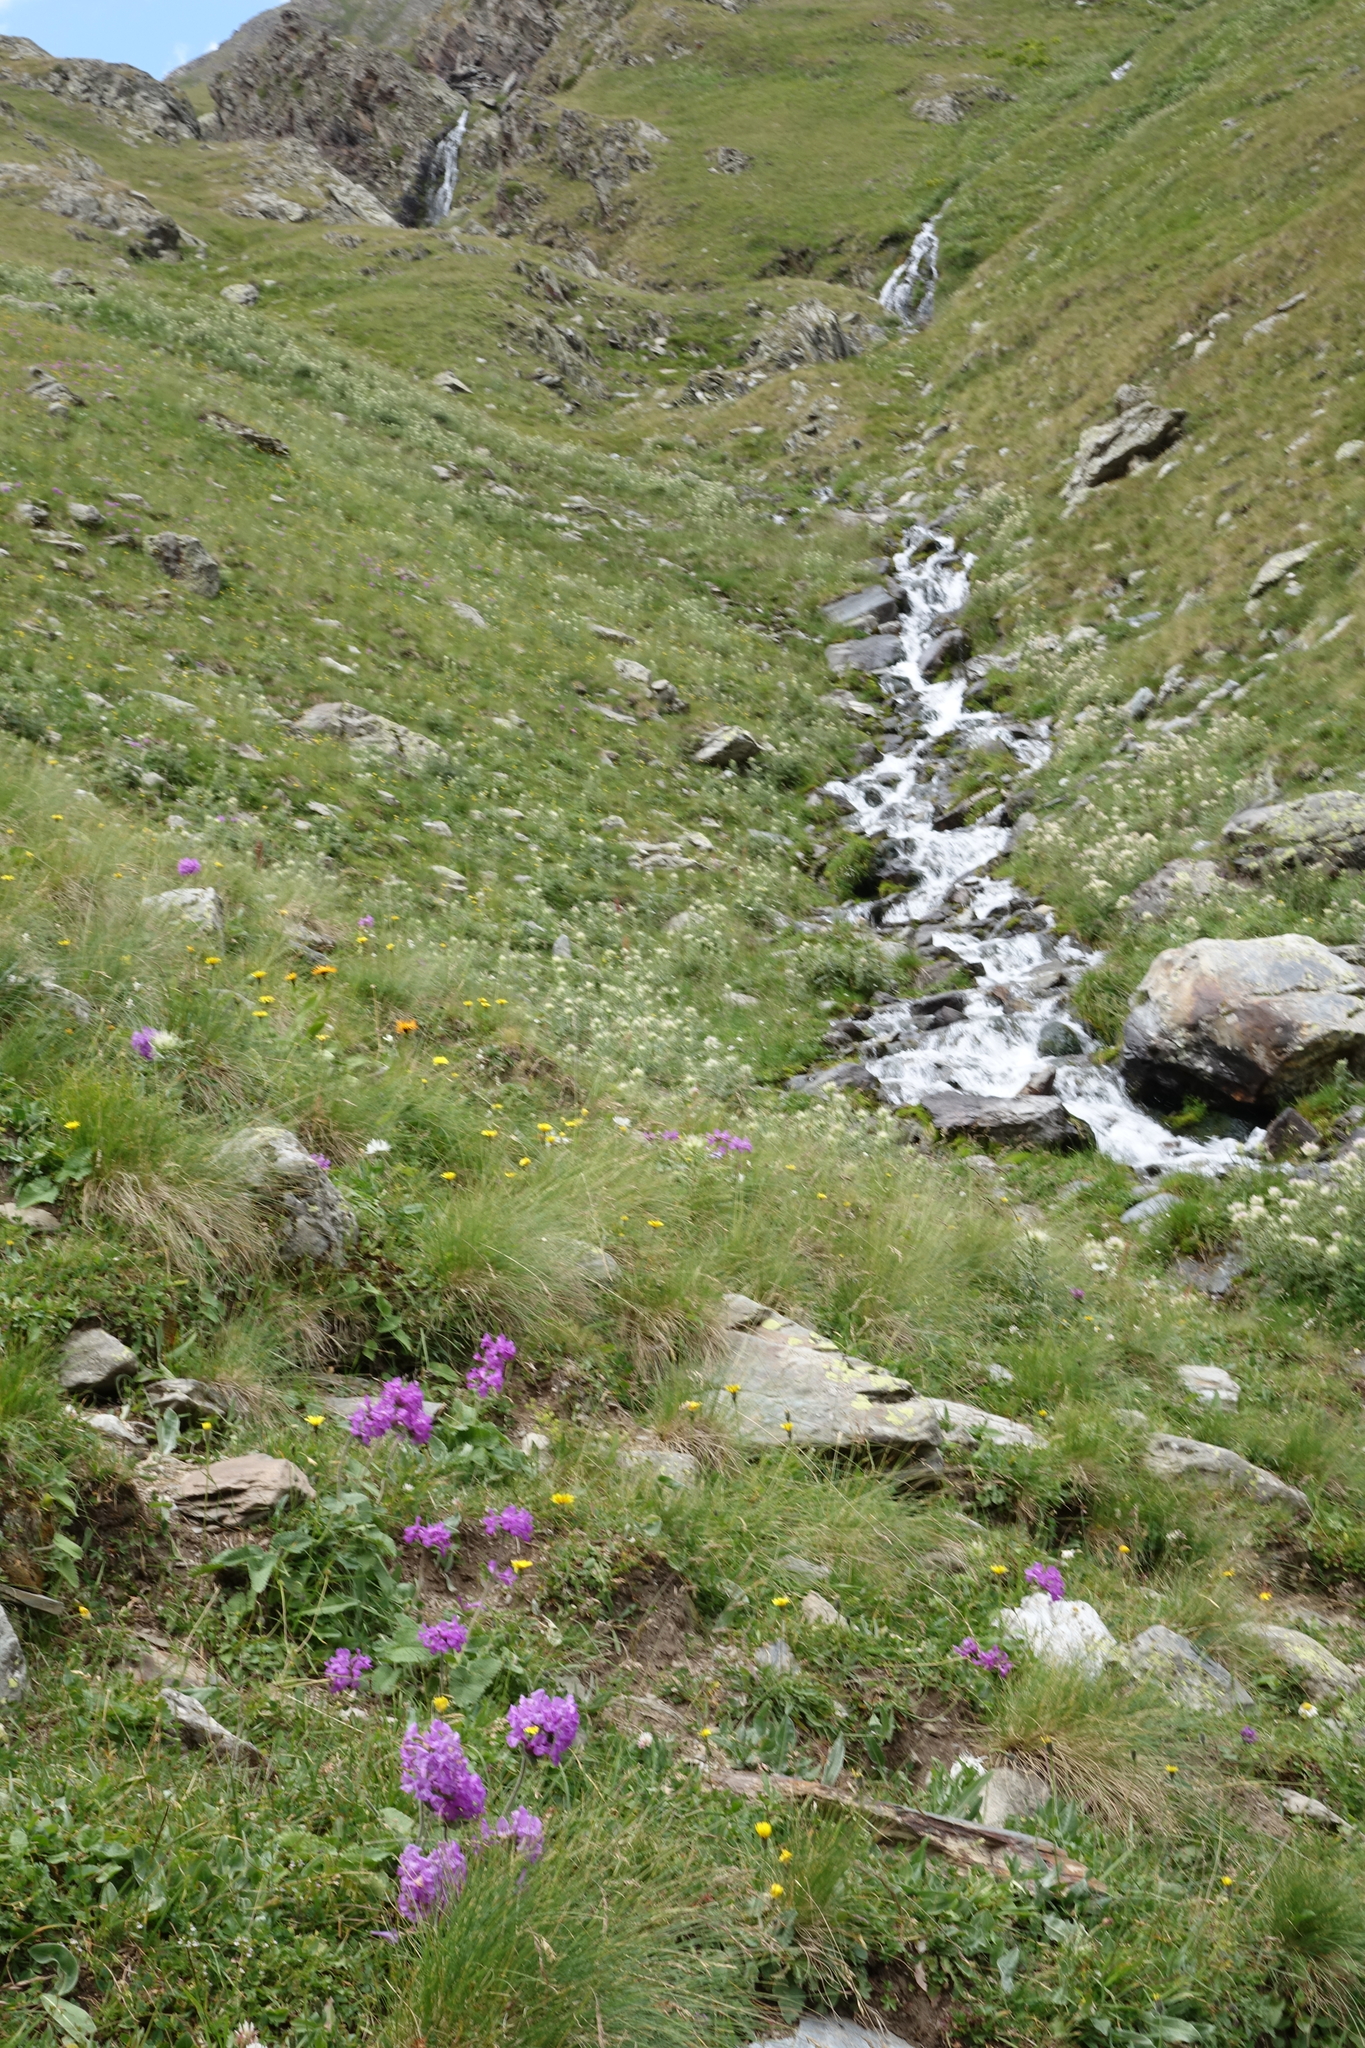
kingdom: Plantae
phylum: Tracheophyta
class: Magnoliopsida
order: Lamiales
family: Lamiaceae
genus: Betonica
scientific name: Betonica macrantha
